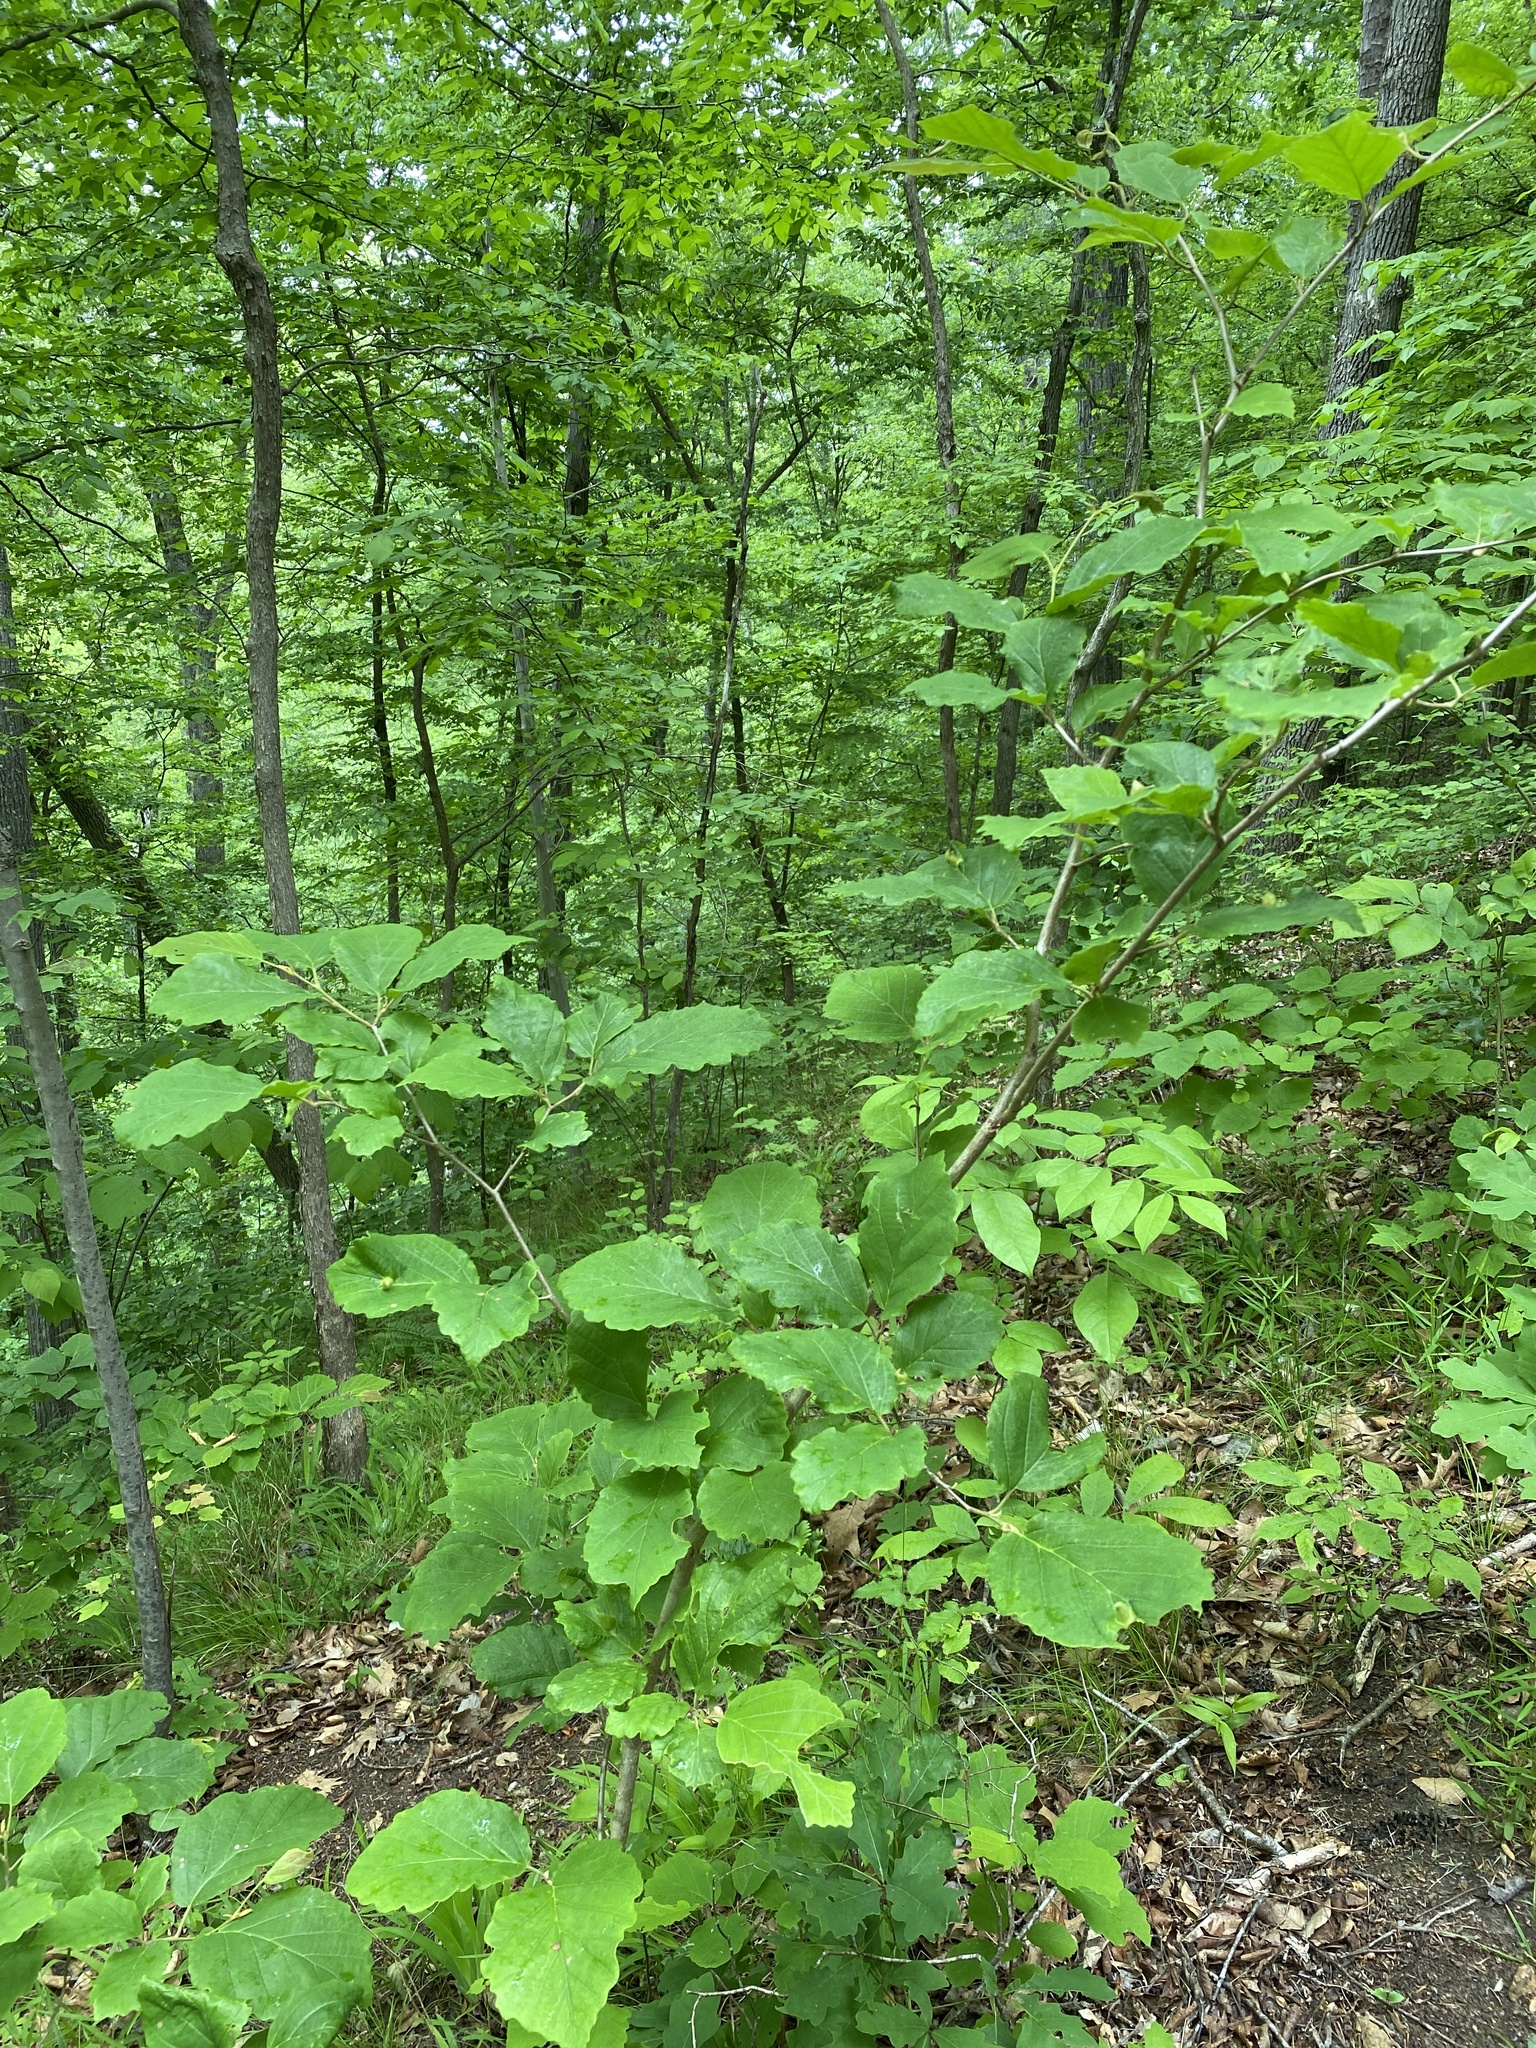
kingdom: Plantae
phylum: Tracheophyta
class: Magnoliopsida
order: Saxifragales
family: Hamamelidaceae
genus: Hamamelis
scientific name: Hamamelis virginiana
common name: Witch-hazel
